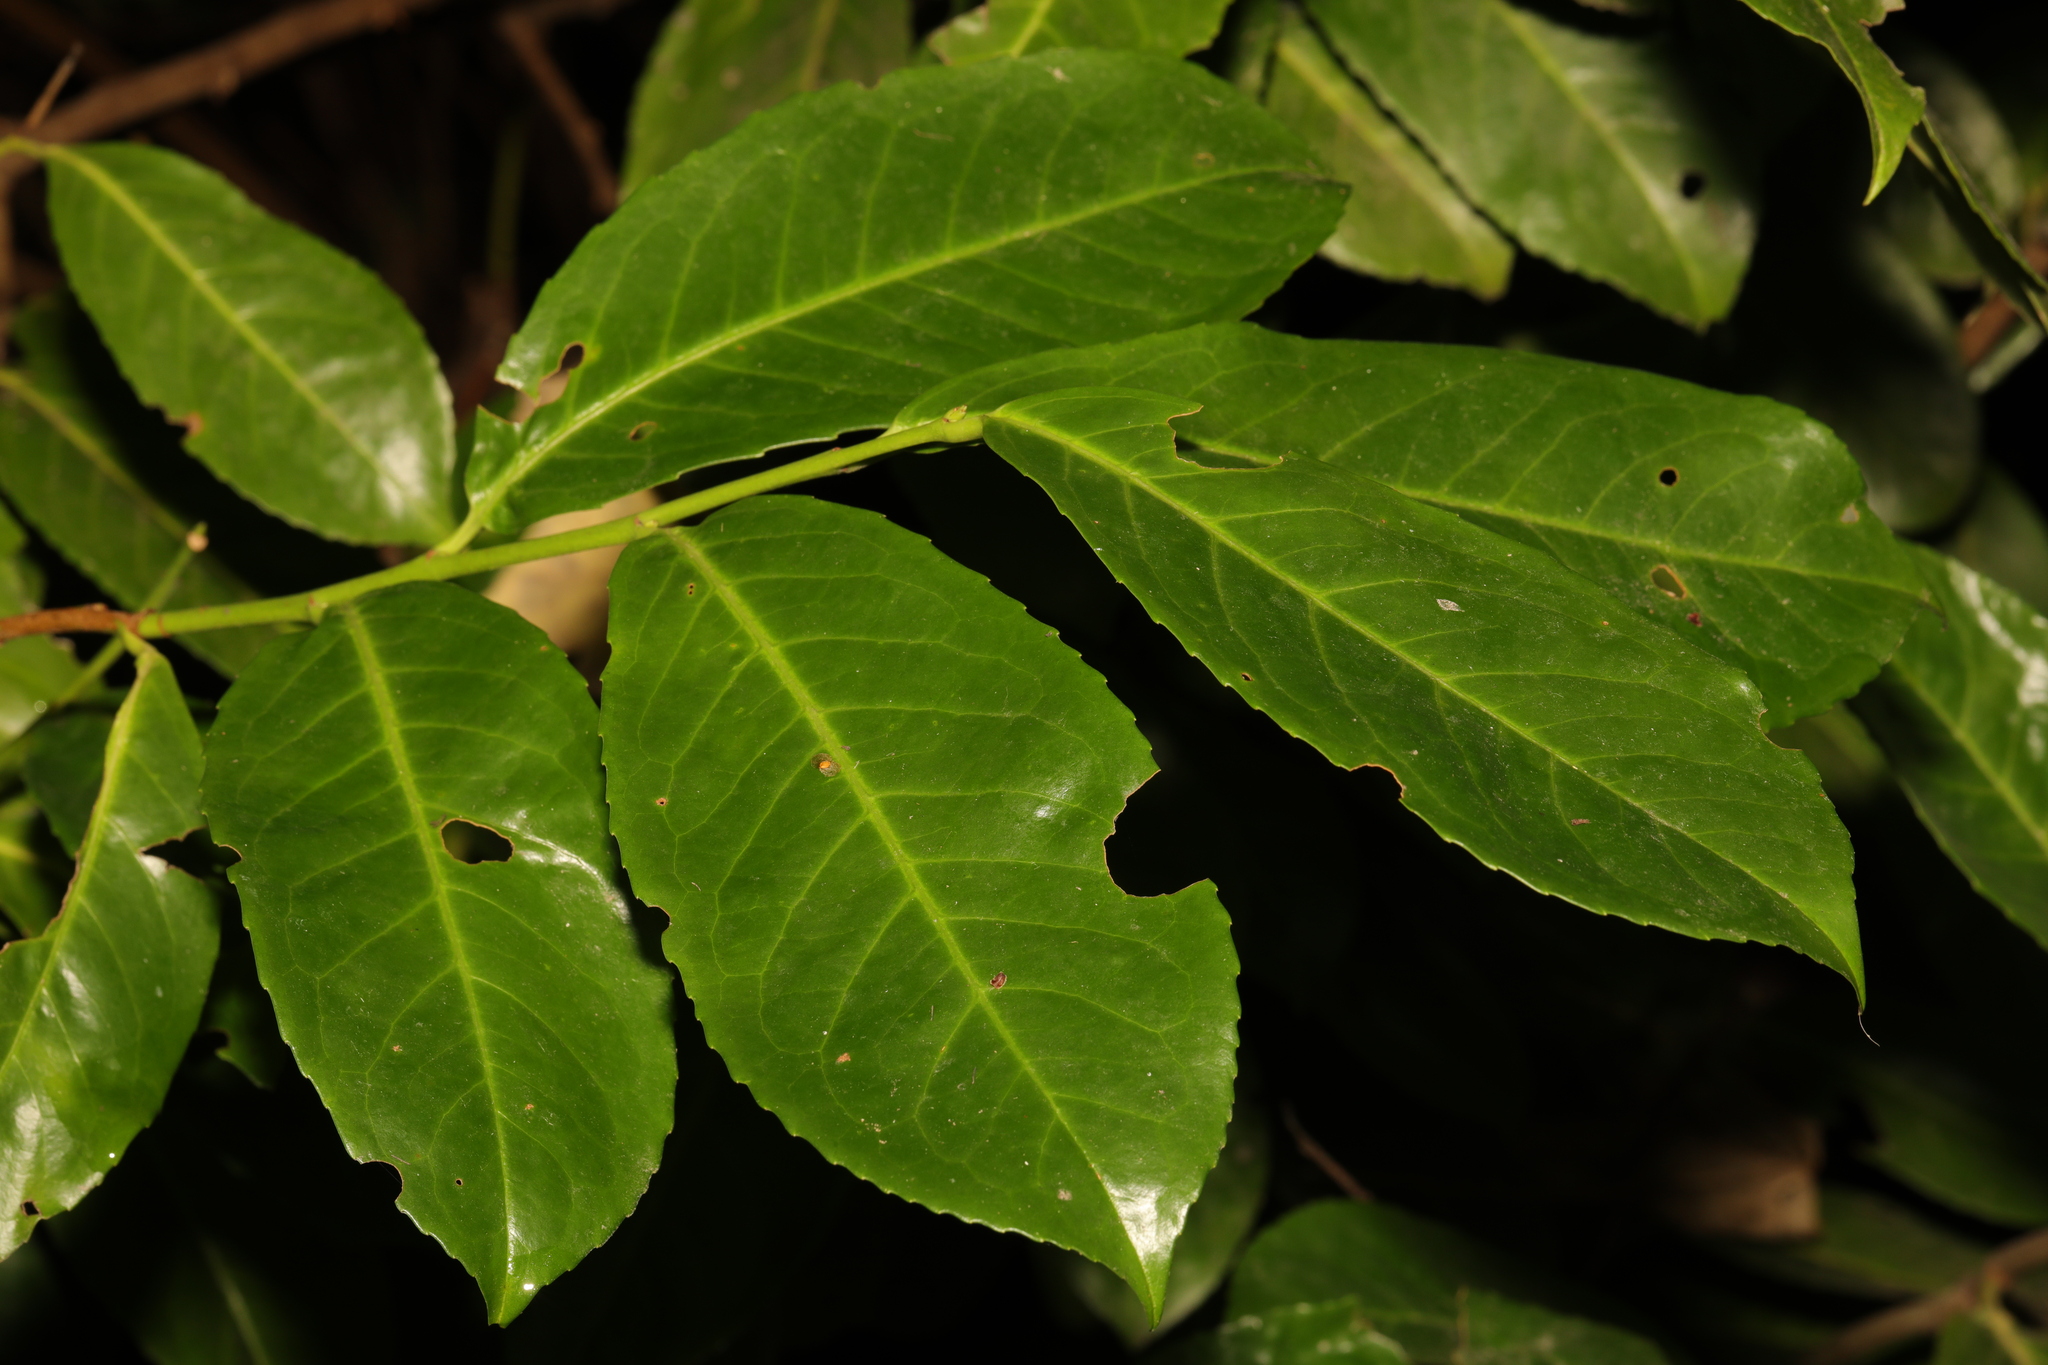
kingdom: Plantae
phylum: Tracheophyta
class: Magnoliopsida
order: Rosales
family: Rosaceae
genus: Prunus
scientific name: Prunus laurocerasus
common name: Cherry laurel
